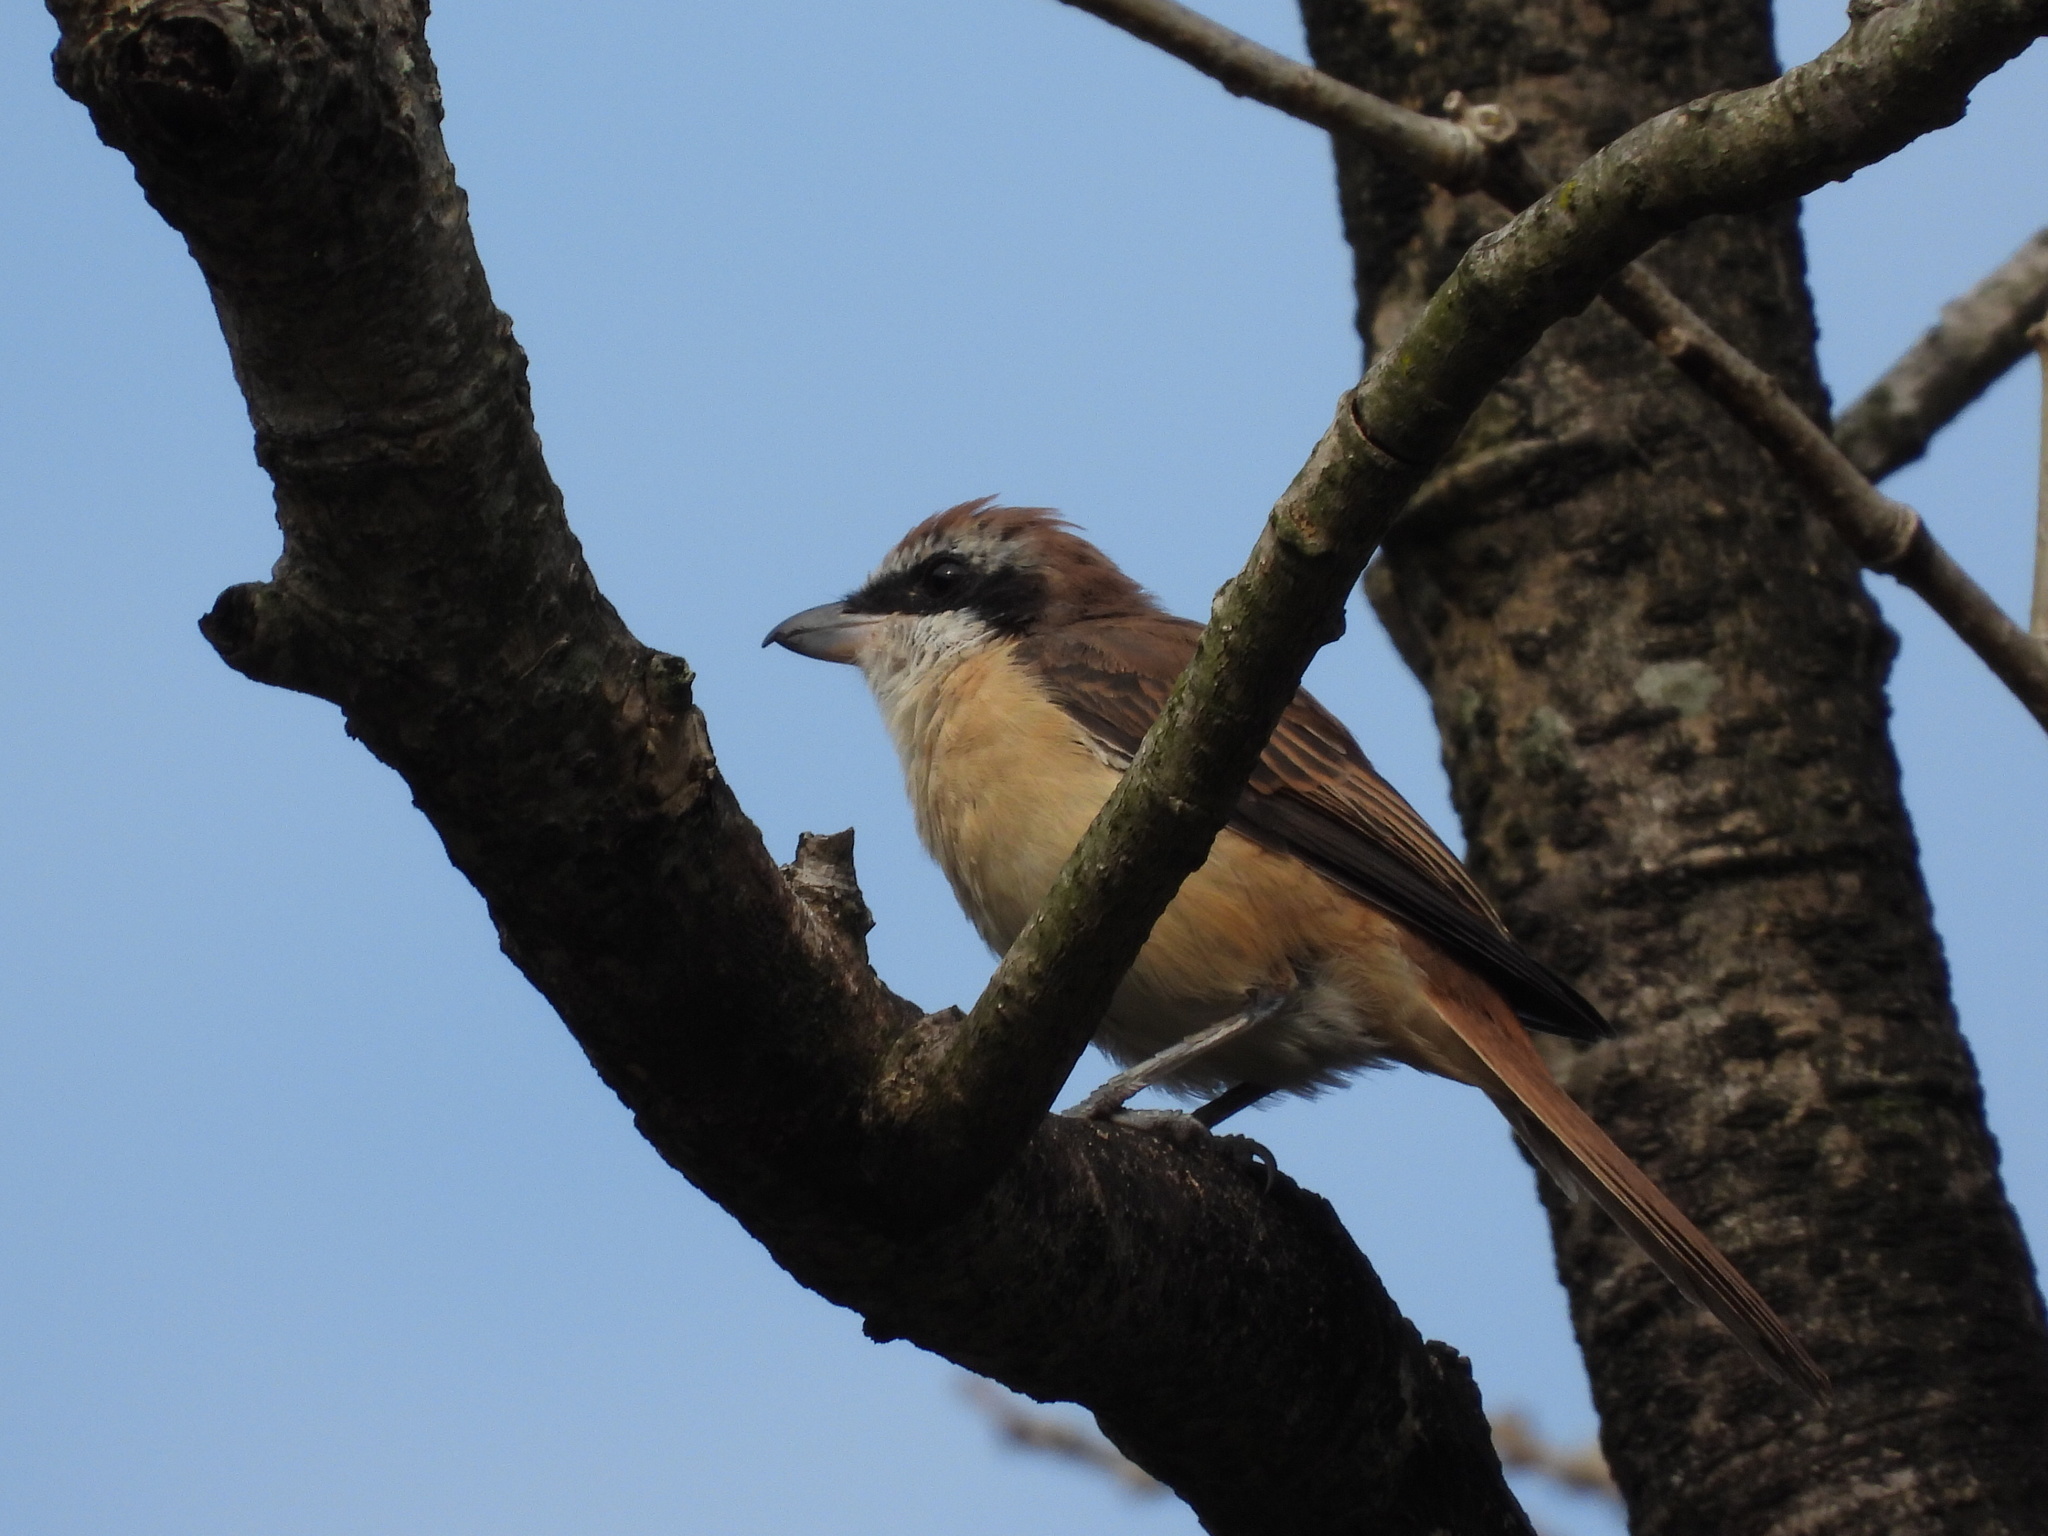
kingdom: Animalia
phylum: Chordata
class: Aves
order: Passeriformes
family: Laniidae
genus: Lanius
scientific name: Lanius cristatus
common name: Brown shrike
